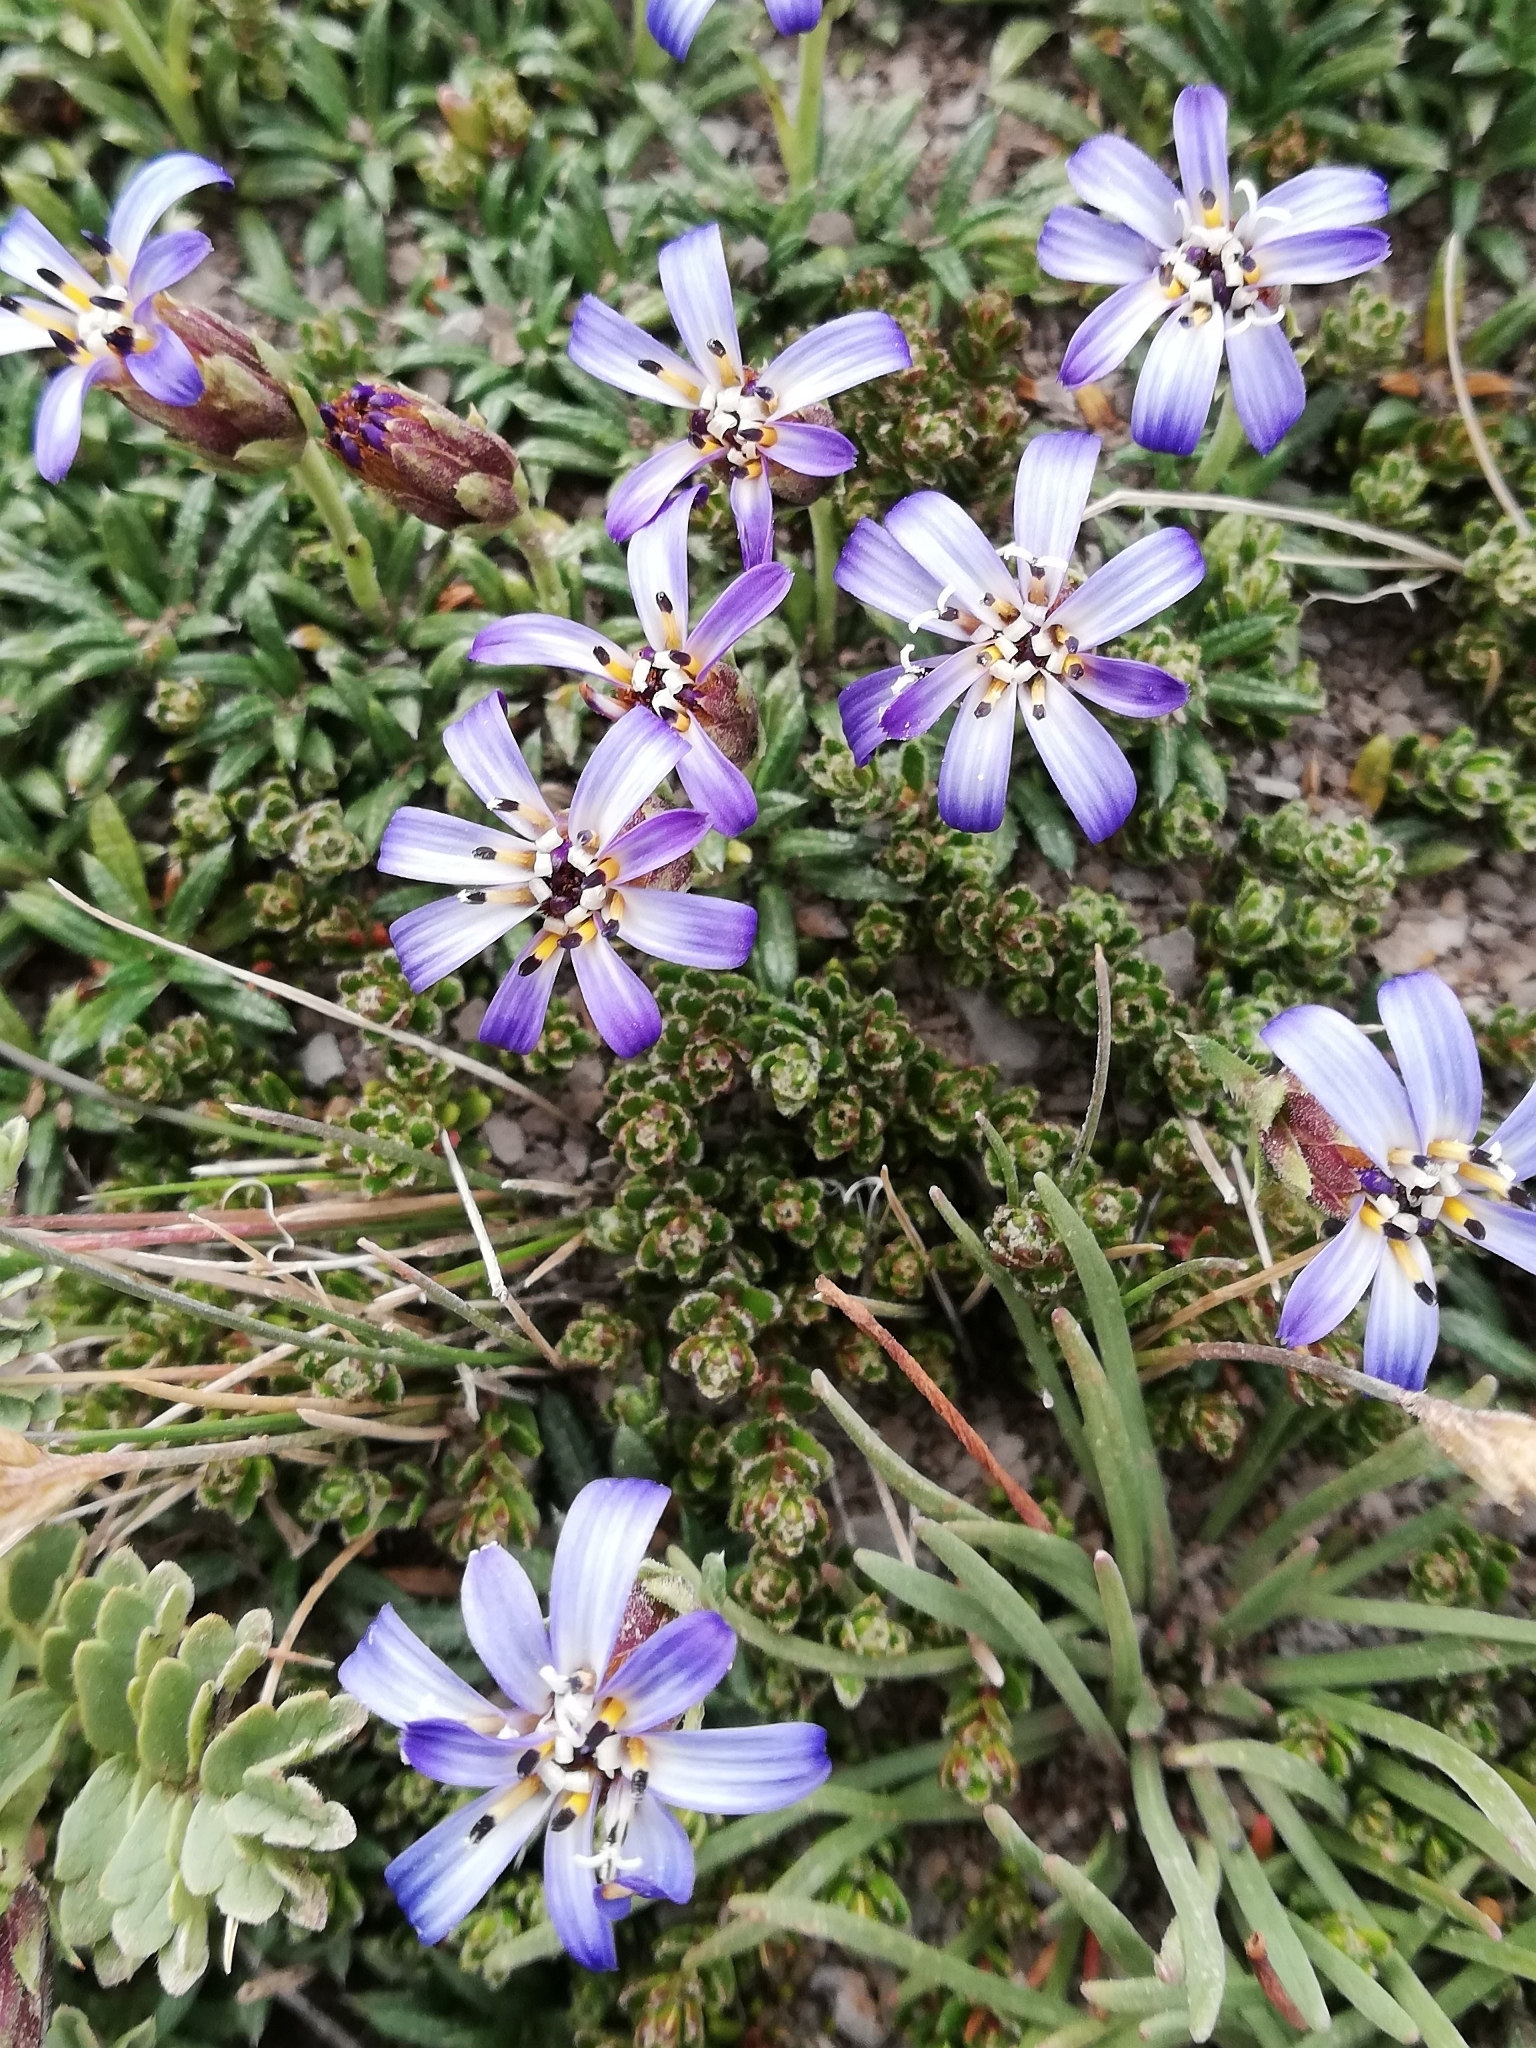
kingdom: Plantae
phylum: Tracheophyta
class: Magnoliopsida
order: Asterales
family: Asteraceae
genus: Perezia
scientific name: Perezia recurvata
